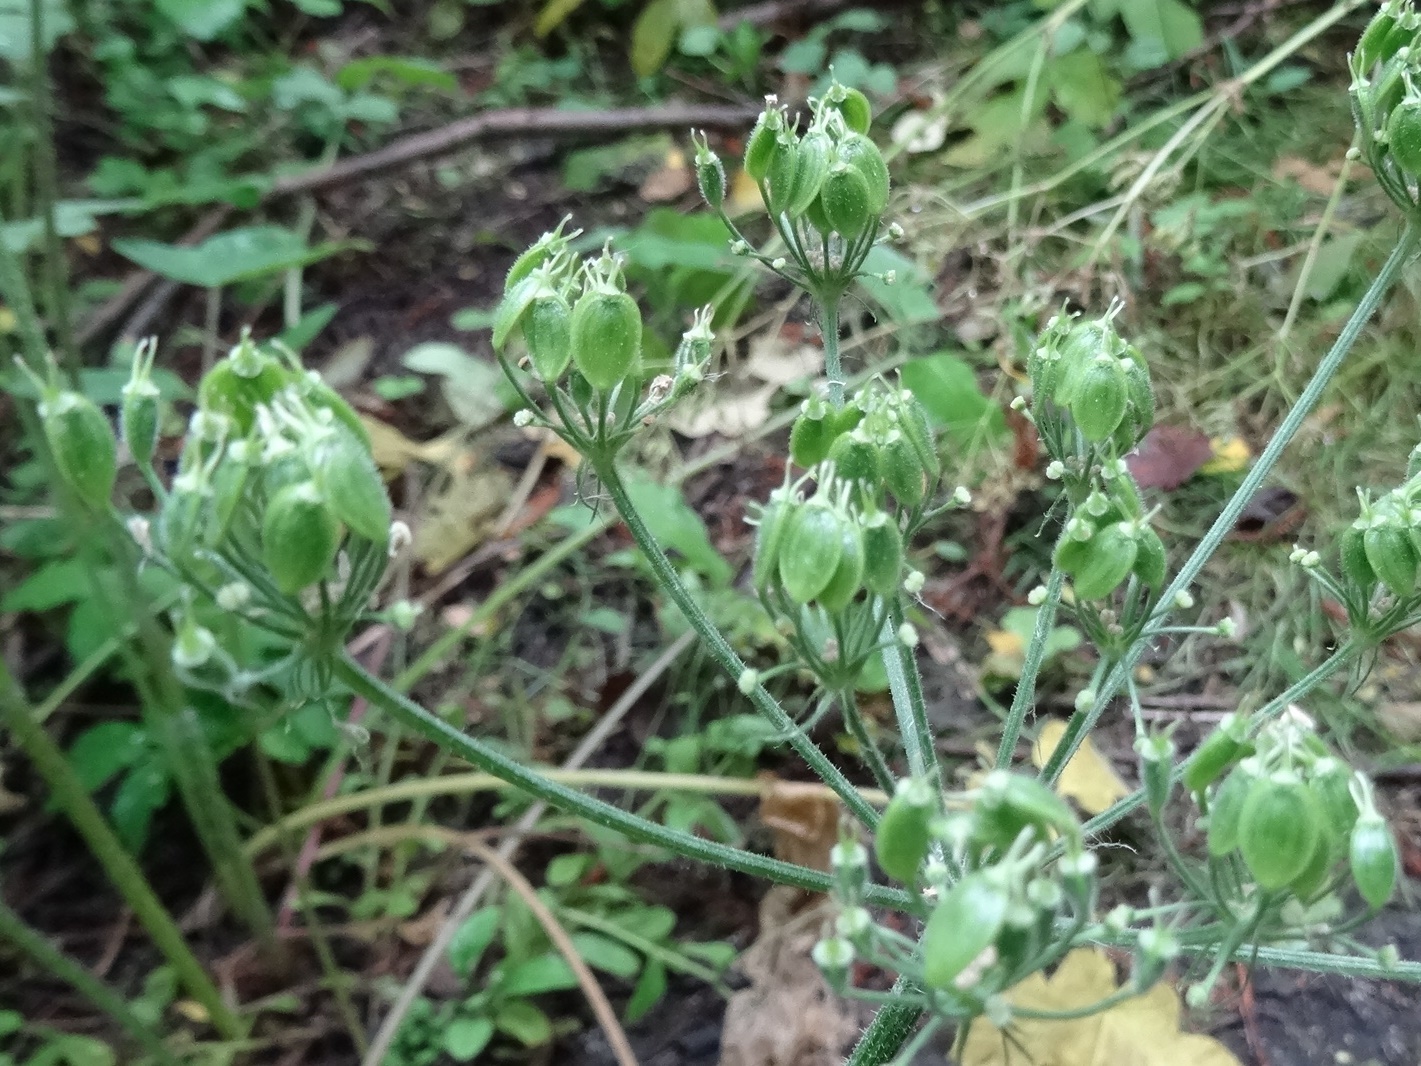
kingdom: Plantae
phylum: Tracheophyta
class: Magnoliopsida
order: Apiales
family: Apiaceae
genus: Heracleum
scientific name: Heracleum sphondylium
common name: Hogweed
